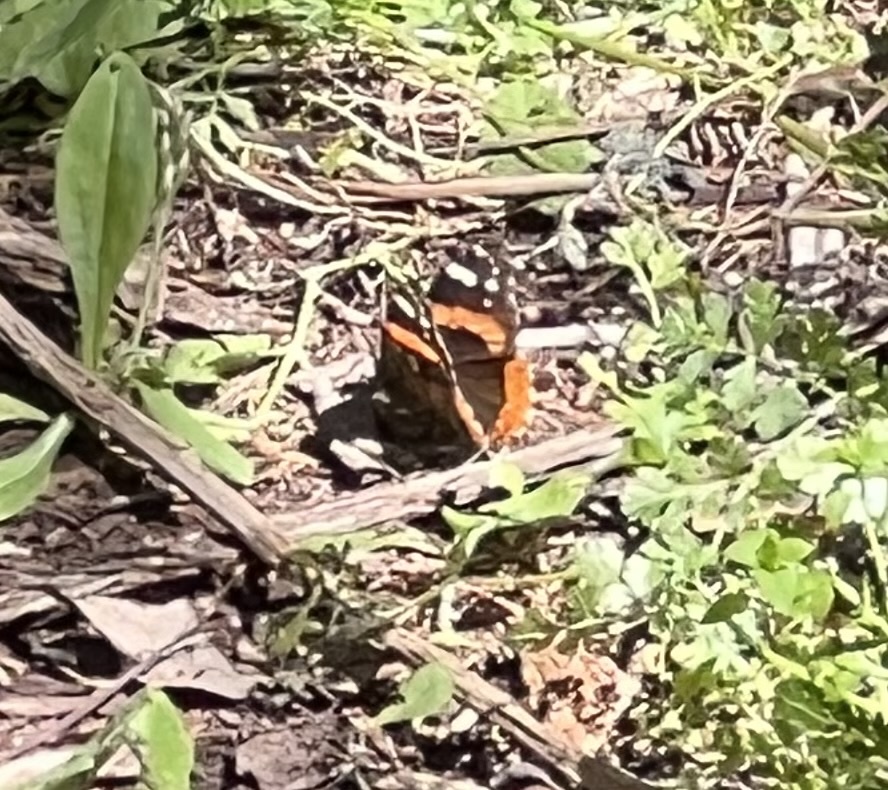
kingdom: Animalia
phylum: Arthropoda
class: Insecta
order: Lepidoptera
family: Nymphalidae
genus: Vanessa
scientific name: Vanessa atalanta
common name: Red admiral
